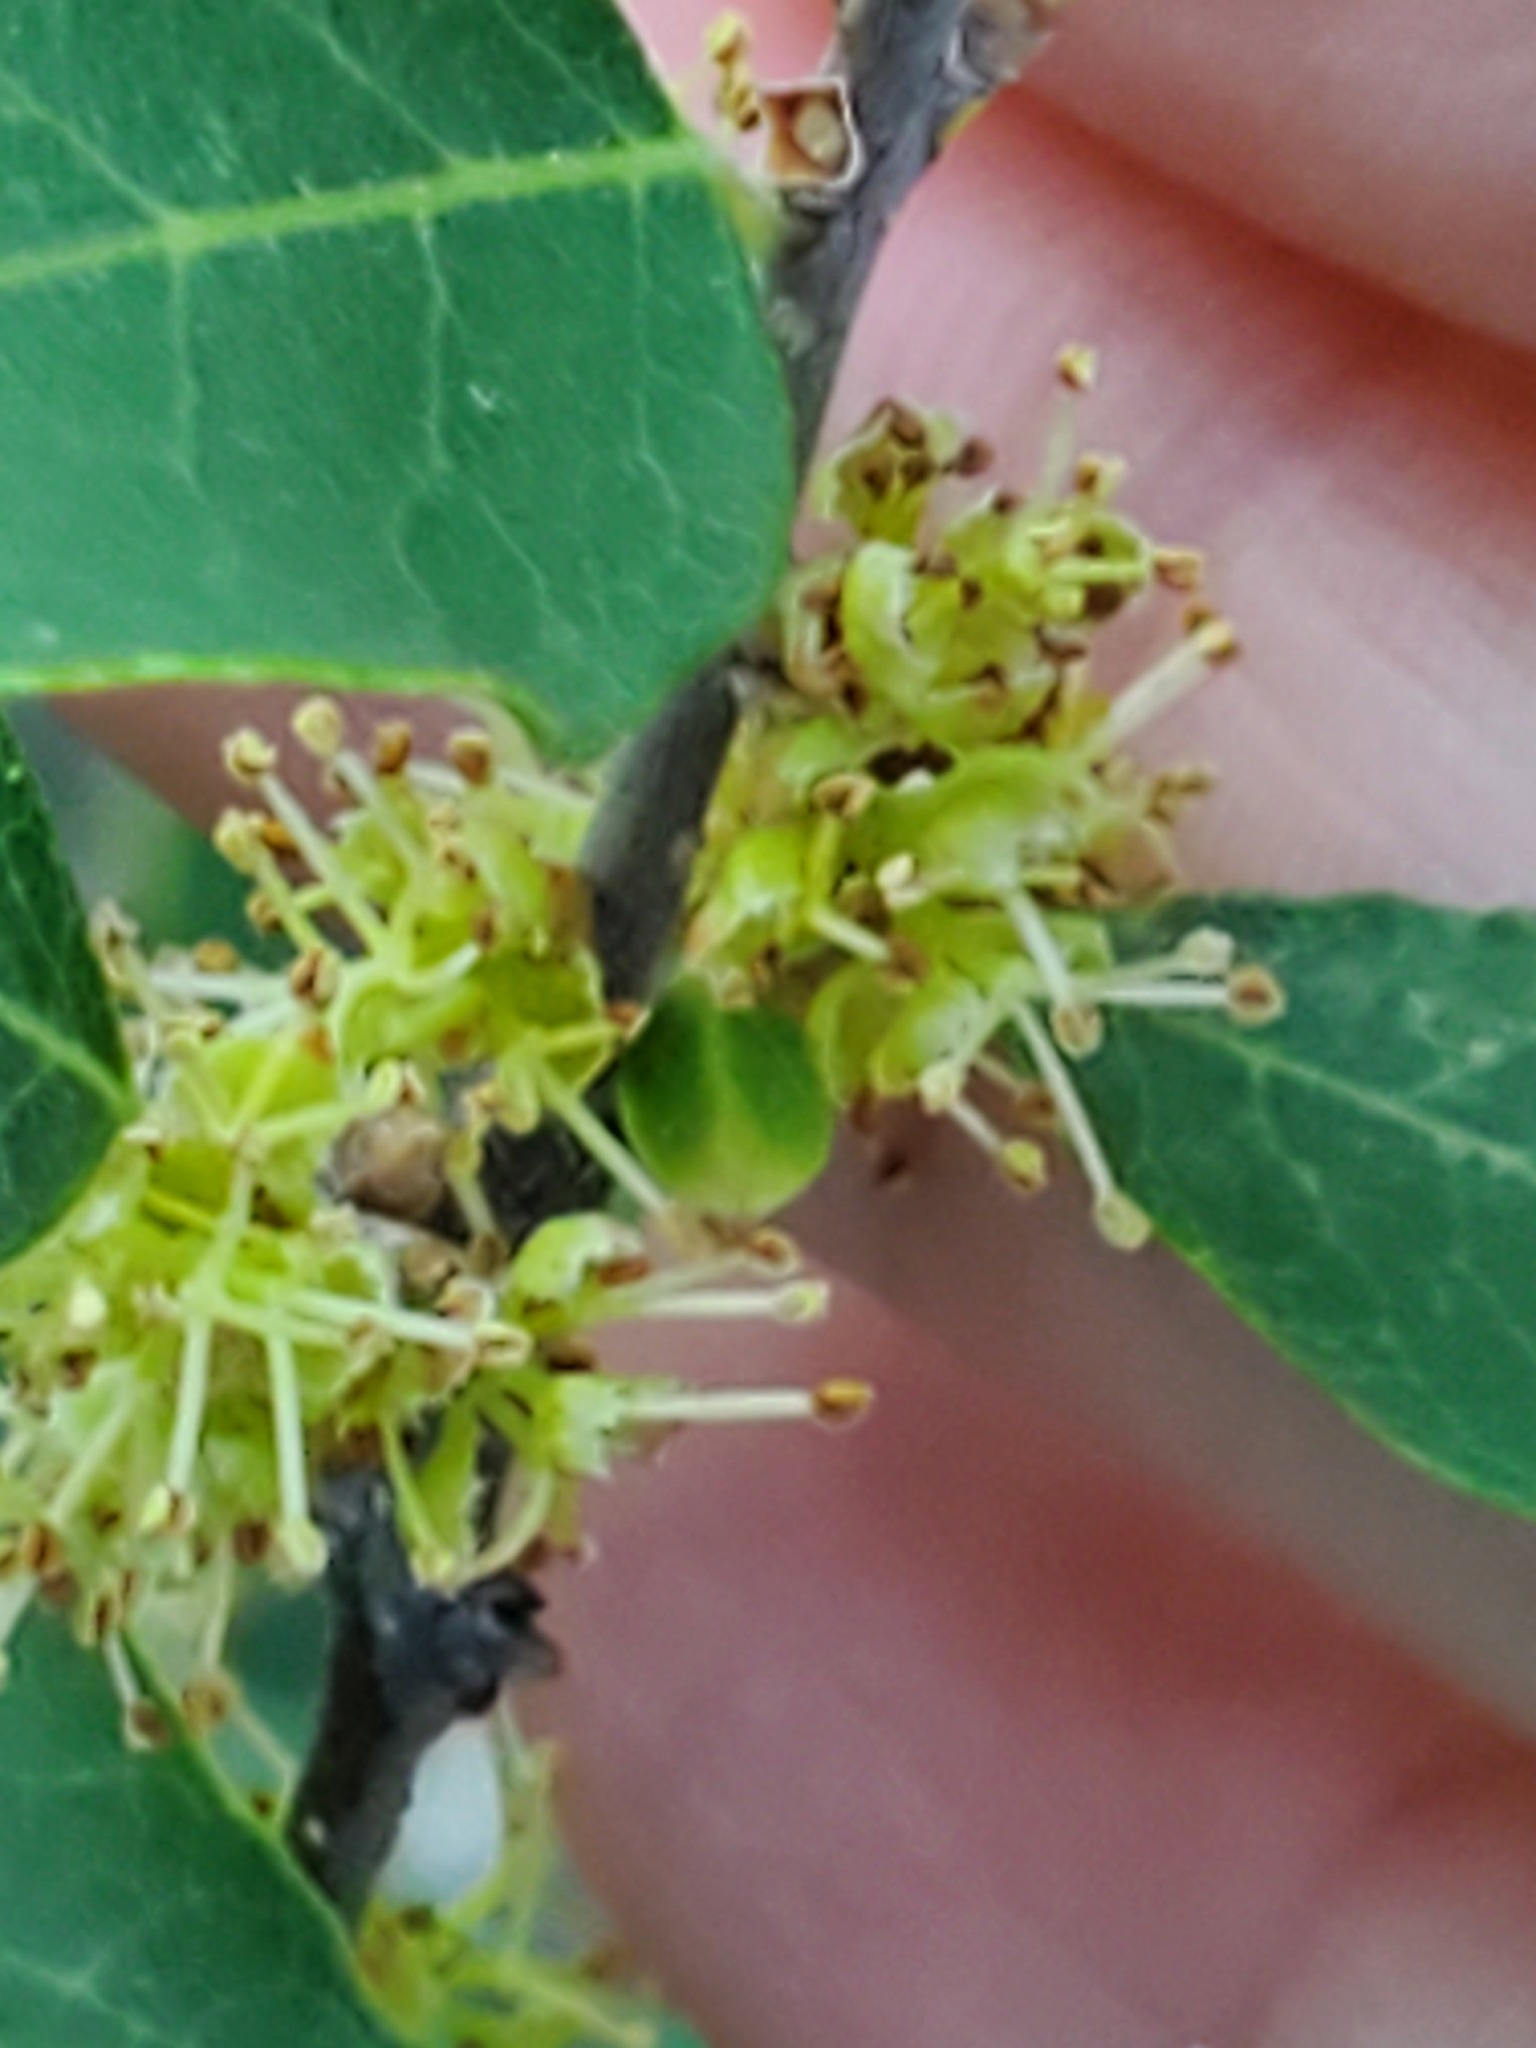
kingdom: Plantae
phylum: Tracheophyta
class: Magnoliopsida
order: Lamiales
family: Oleaceae
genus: Forestiera
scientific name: Forestiera reticulata
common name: Netleaf swamp-privet
